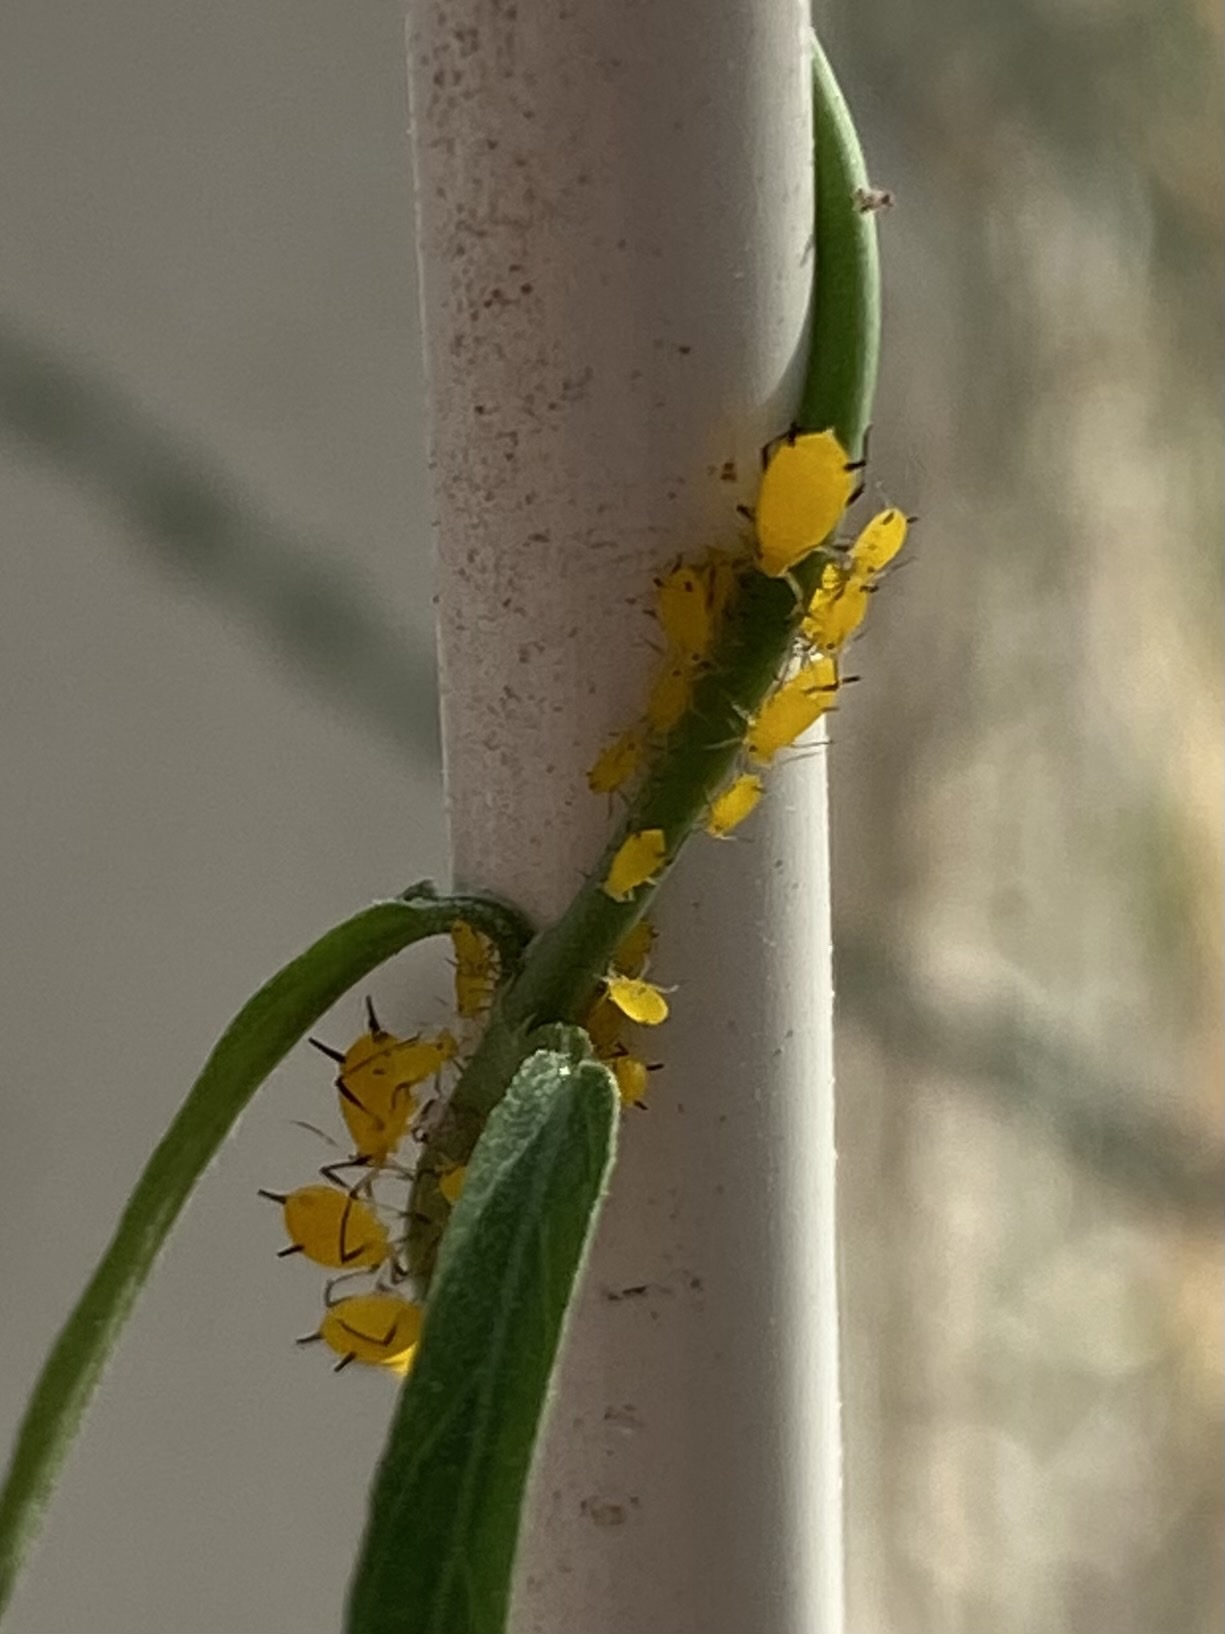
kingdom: Animalia
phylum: Arthropoda
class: Insecta
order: Hemiptera
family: Aphididae
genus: Aphis
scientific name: Aphis nerii
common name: Oleander aphid
